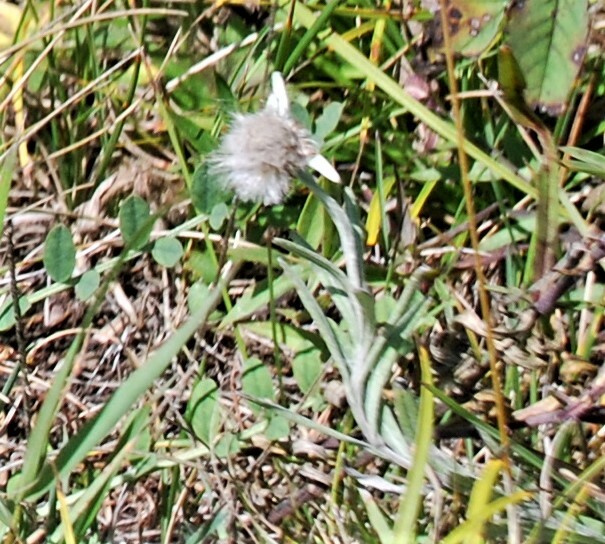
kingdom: Plantae
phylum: Tracheophyta
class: Magnoliopsida
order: Asterales
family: Asteraceae
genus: Leontopodium
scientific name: Leontopodium leontopodioides
